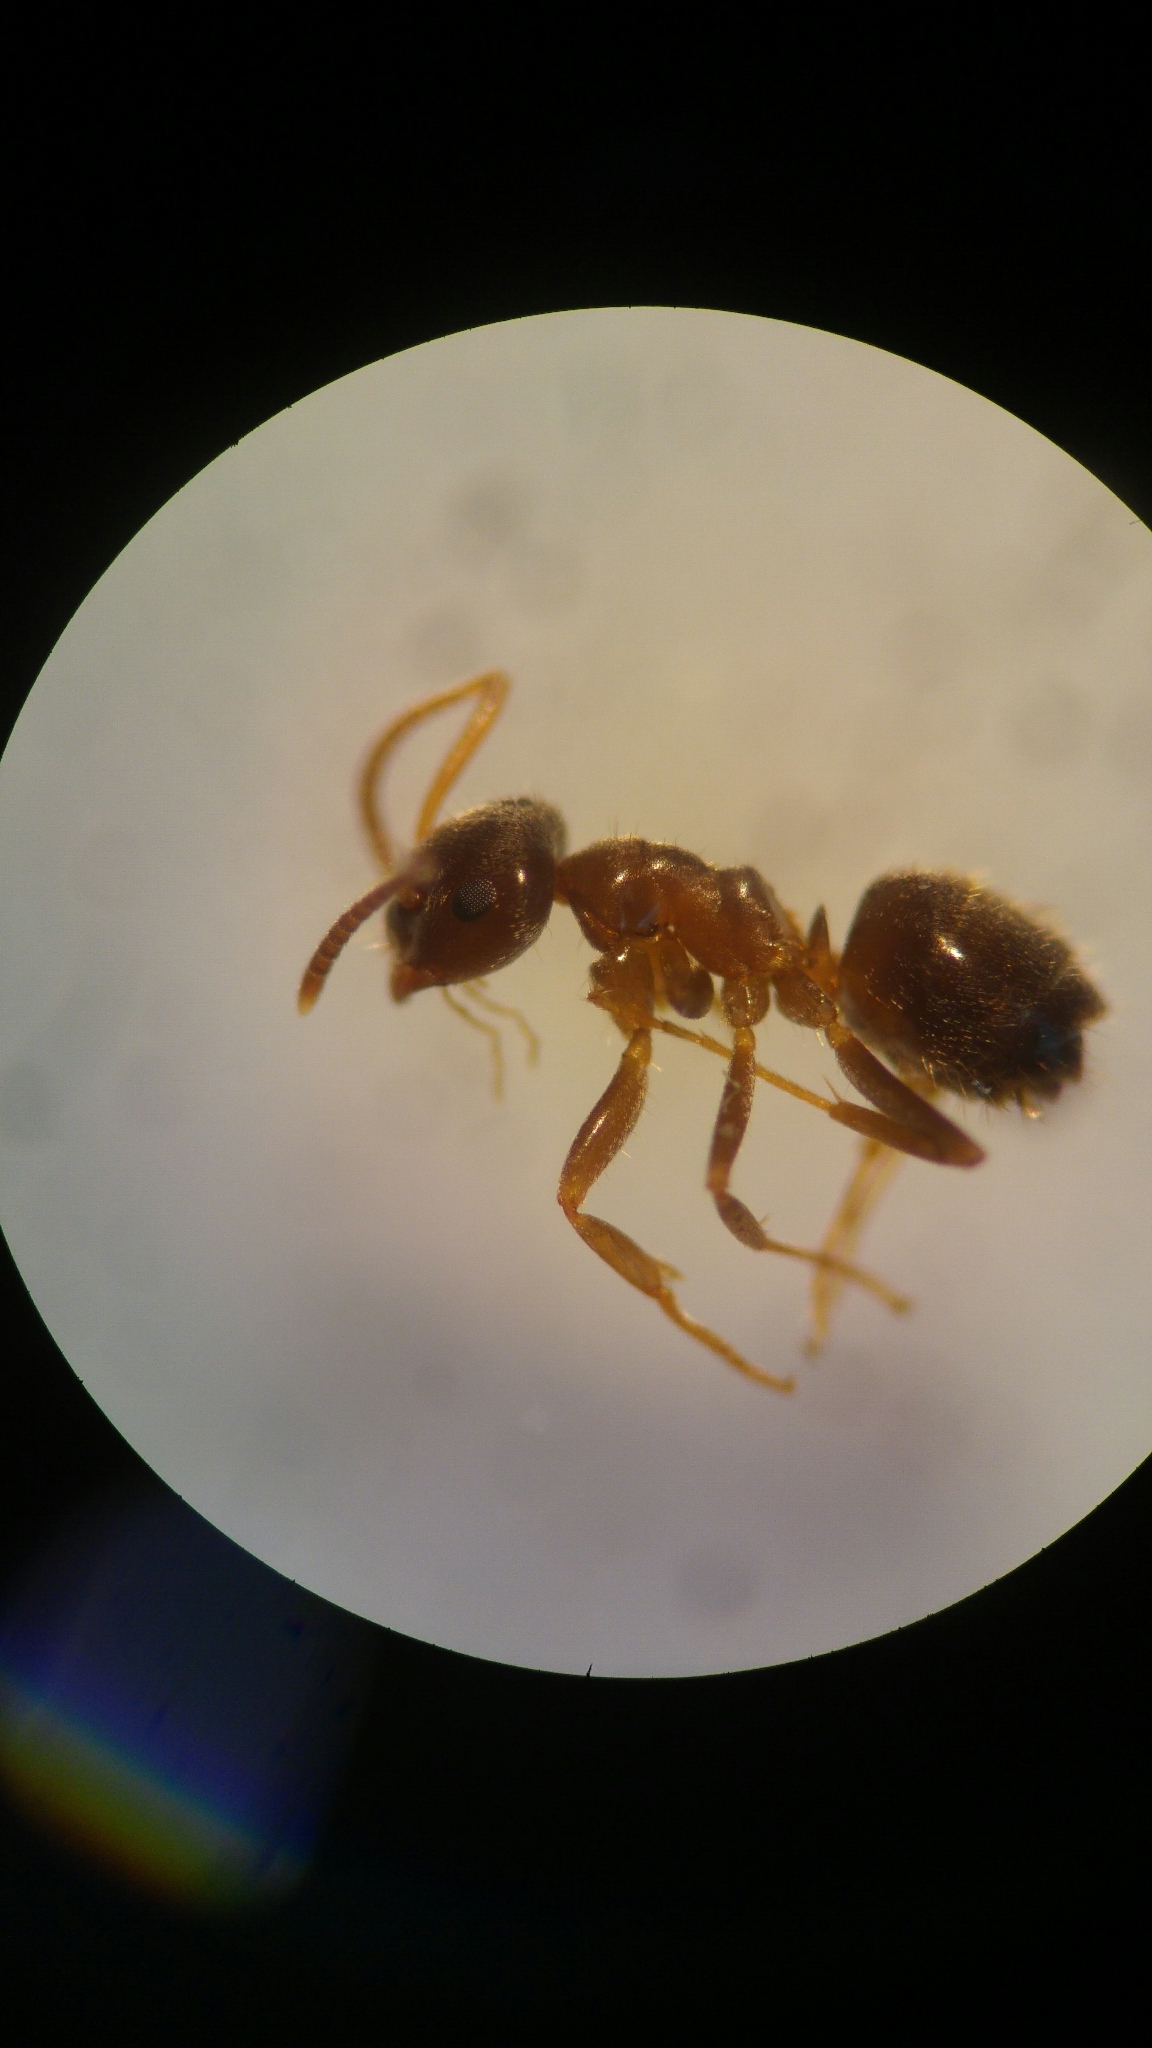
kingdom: Animalia
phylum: Arthropoda
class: Insecta
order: Hymenoptera
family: Formicidae
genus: Lasius
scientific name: Lasius neglectus
